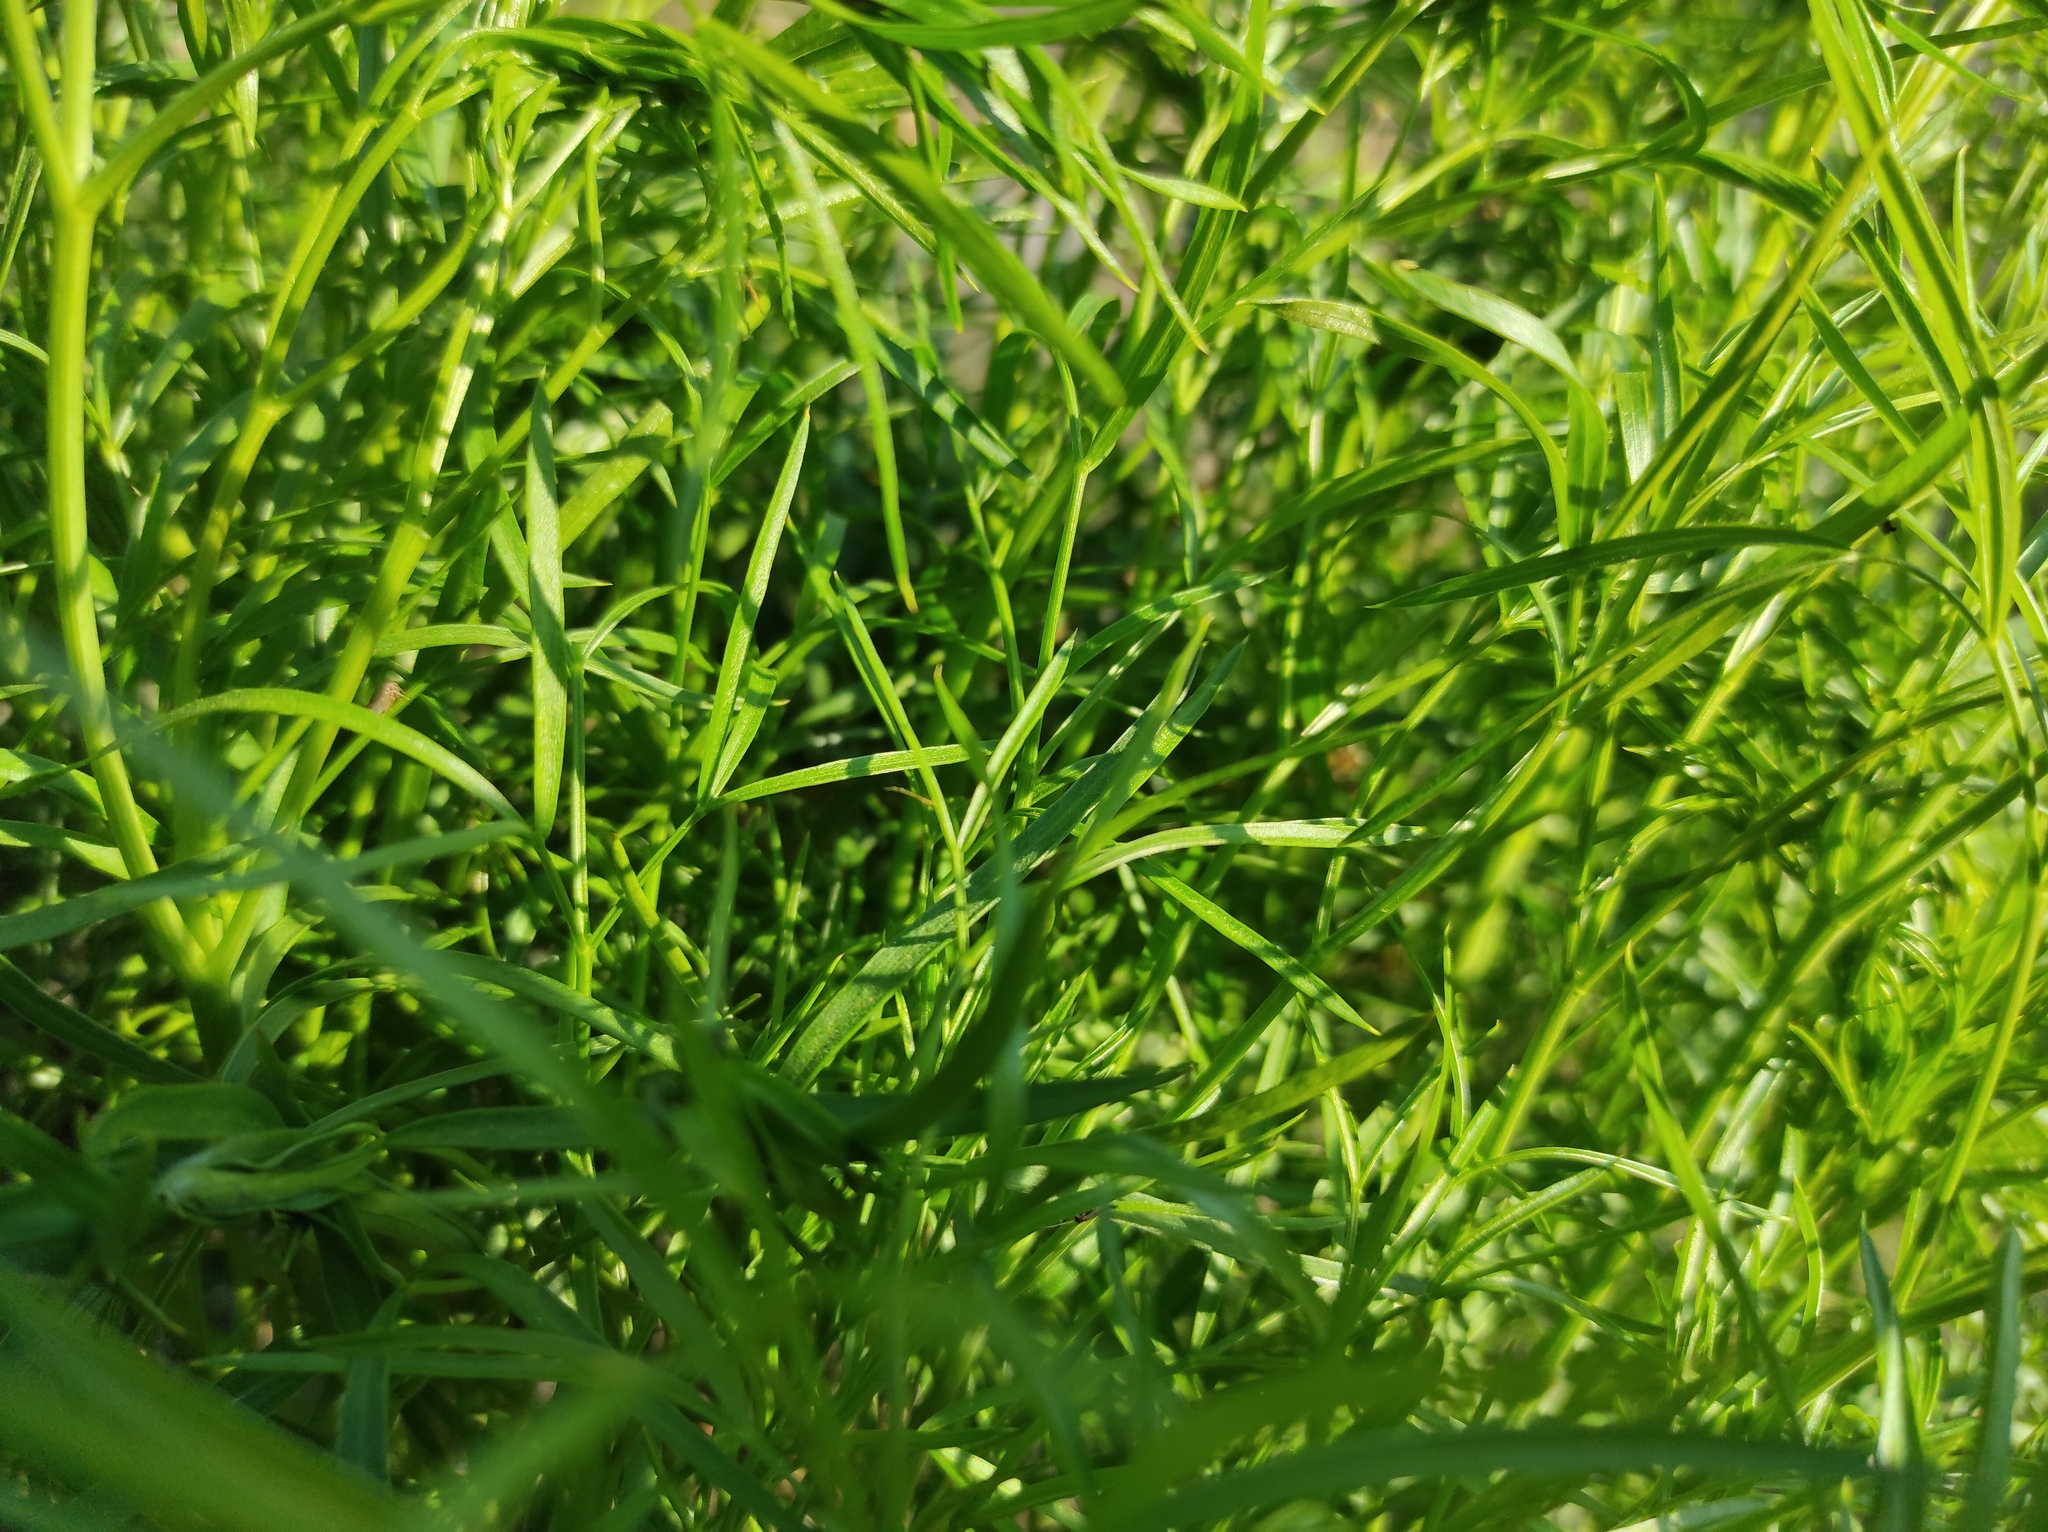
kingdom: Plantae
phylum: Tracheophyta
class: Magnoliopsida
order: Apiales
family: Apiaceae
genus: Peucedanum
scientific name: Peucedanum morisonii
